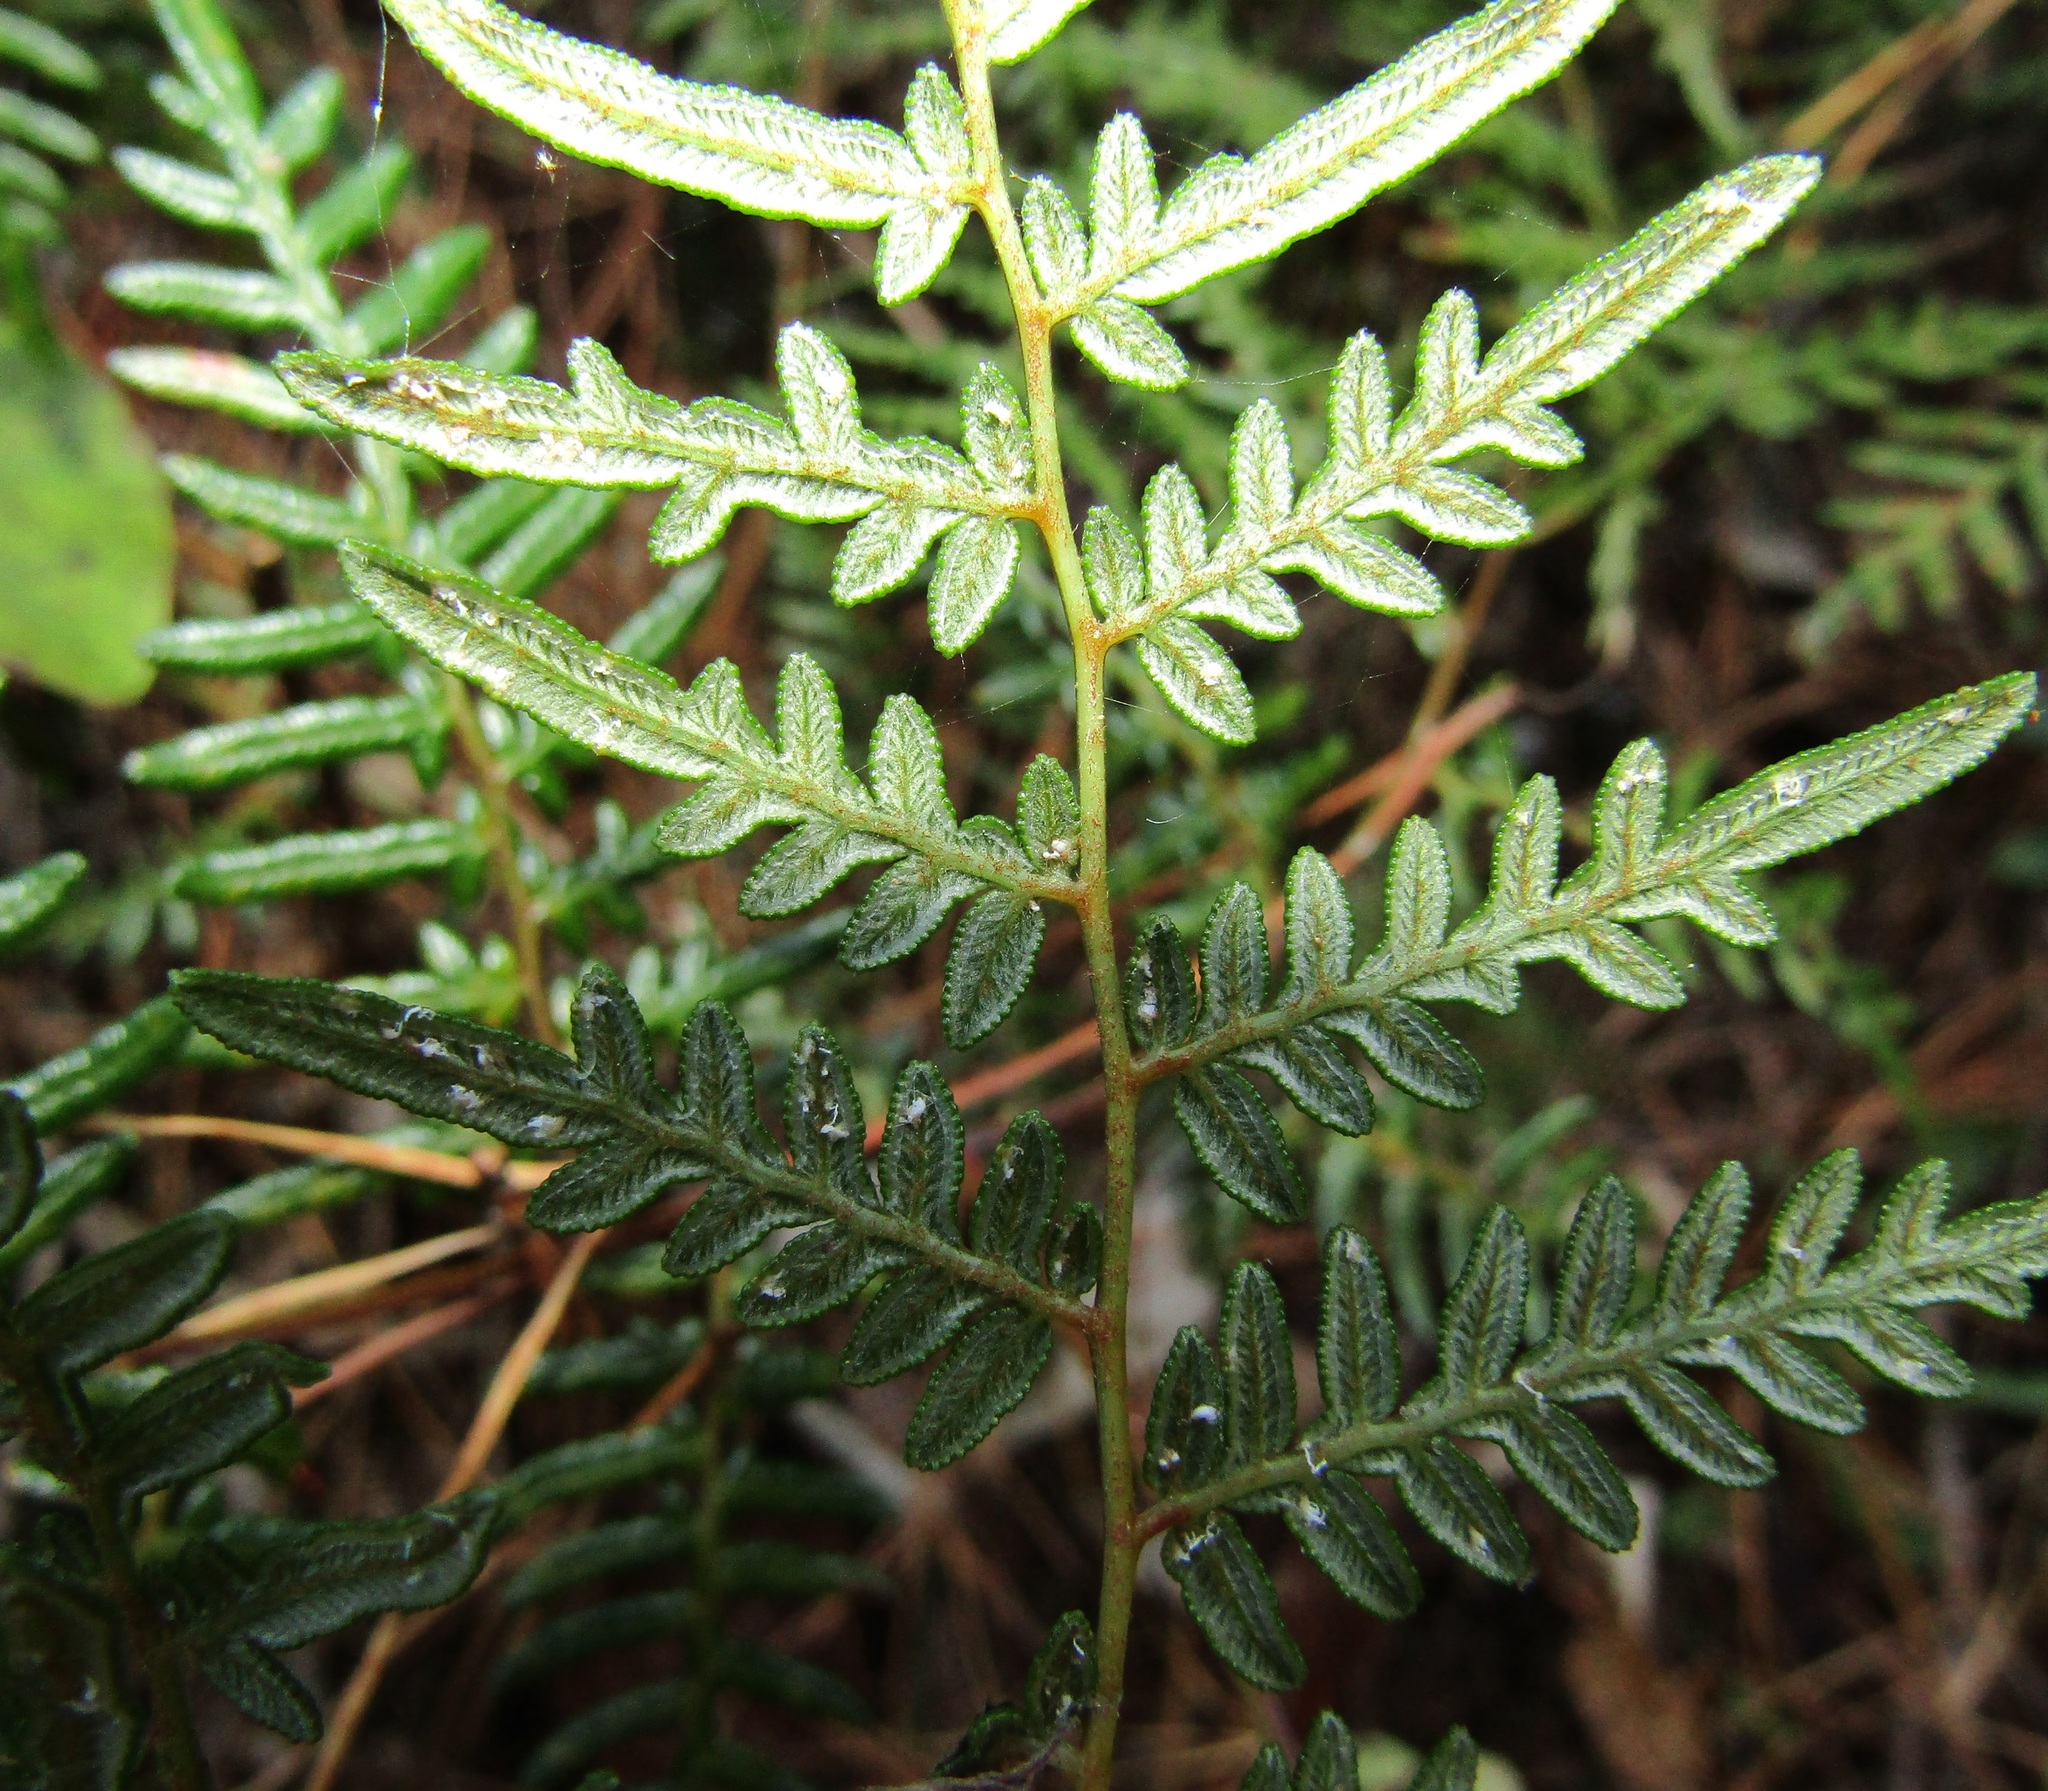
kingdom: Plantae
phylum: Tracheophyta
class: Polypodiopsida
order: Polypodiales
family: Dennstaedtiaceae
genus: Pteridium
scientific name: Pteridium esculentum
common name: Bracken fern
